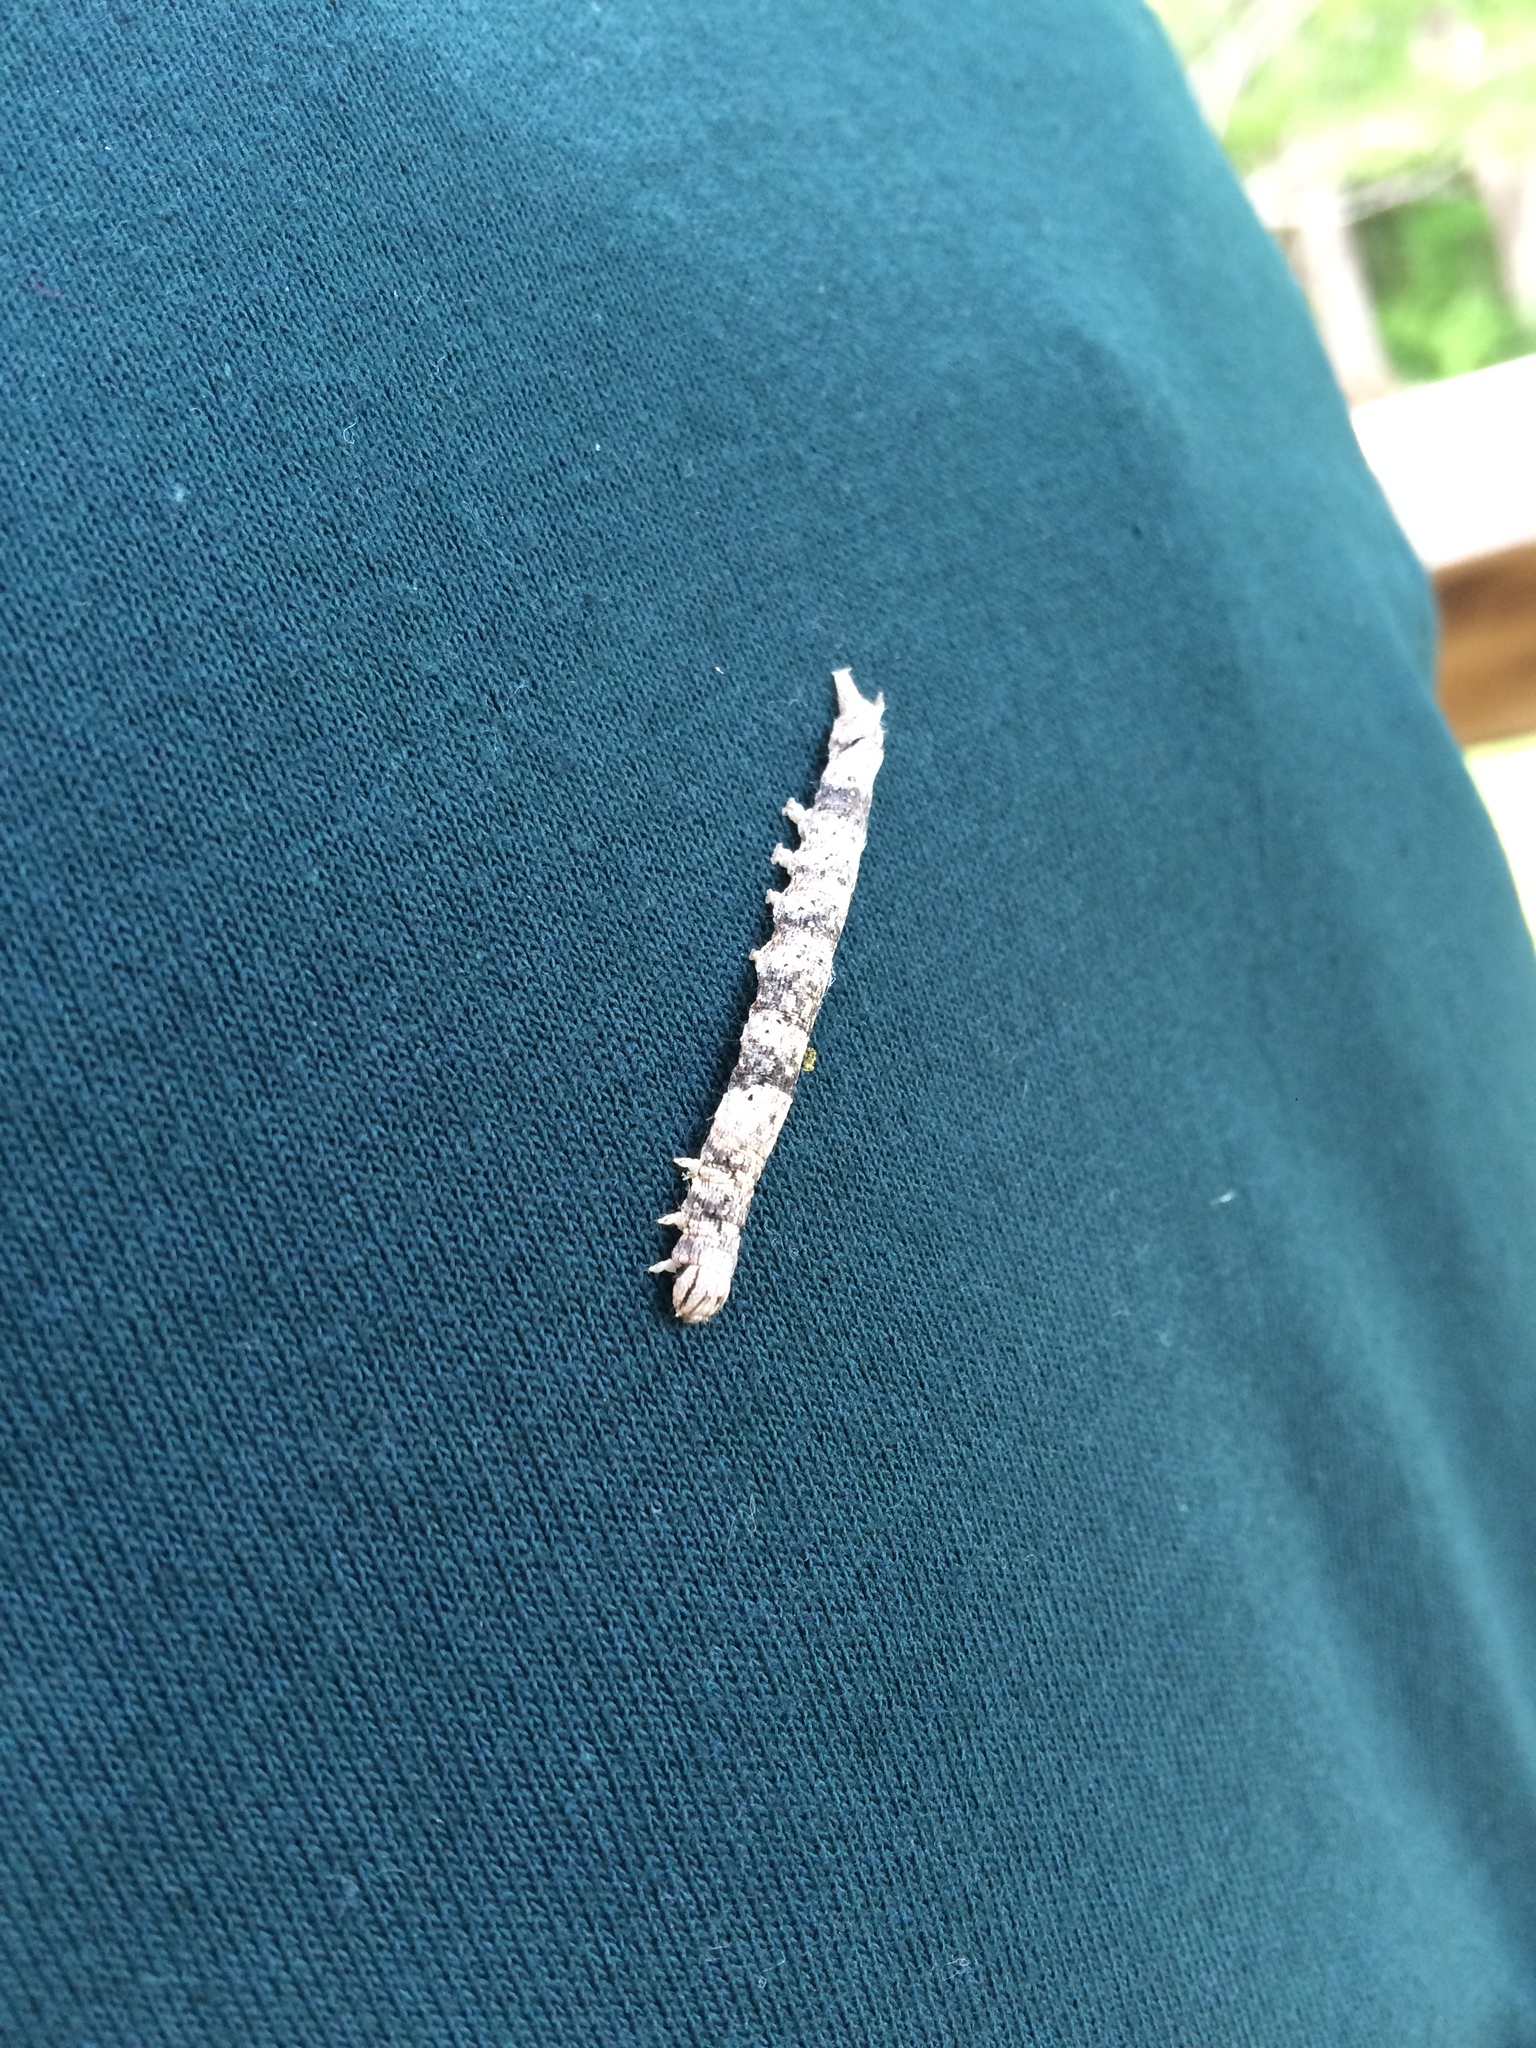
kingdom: Animalia
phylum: Arthropoda
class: Insecta
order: Lepidoptera
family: Erebidae
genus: Parallelia
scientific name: Parallelia bistriaris
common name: Maple looper moth
